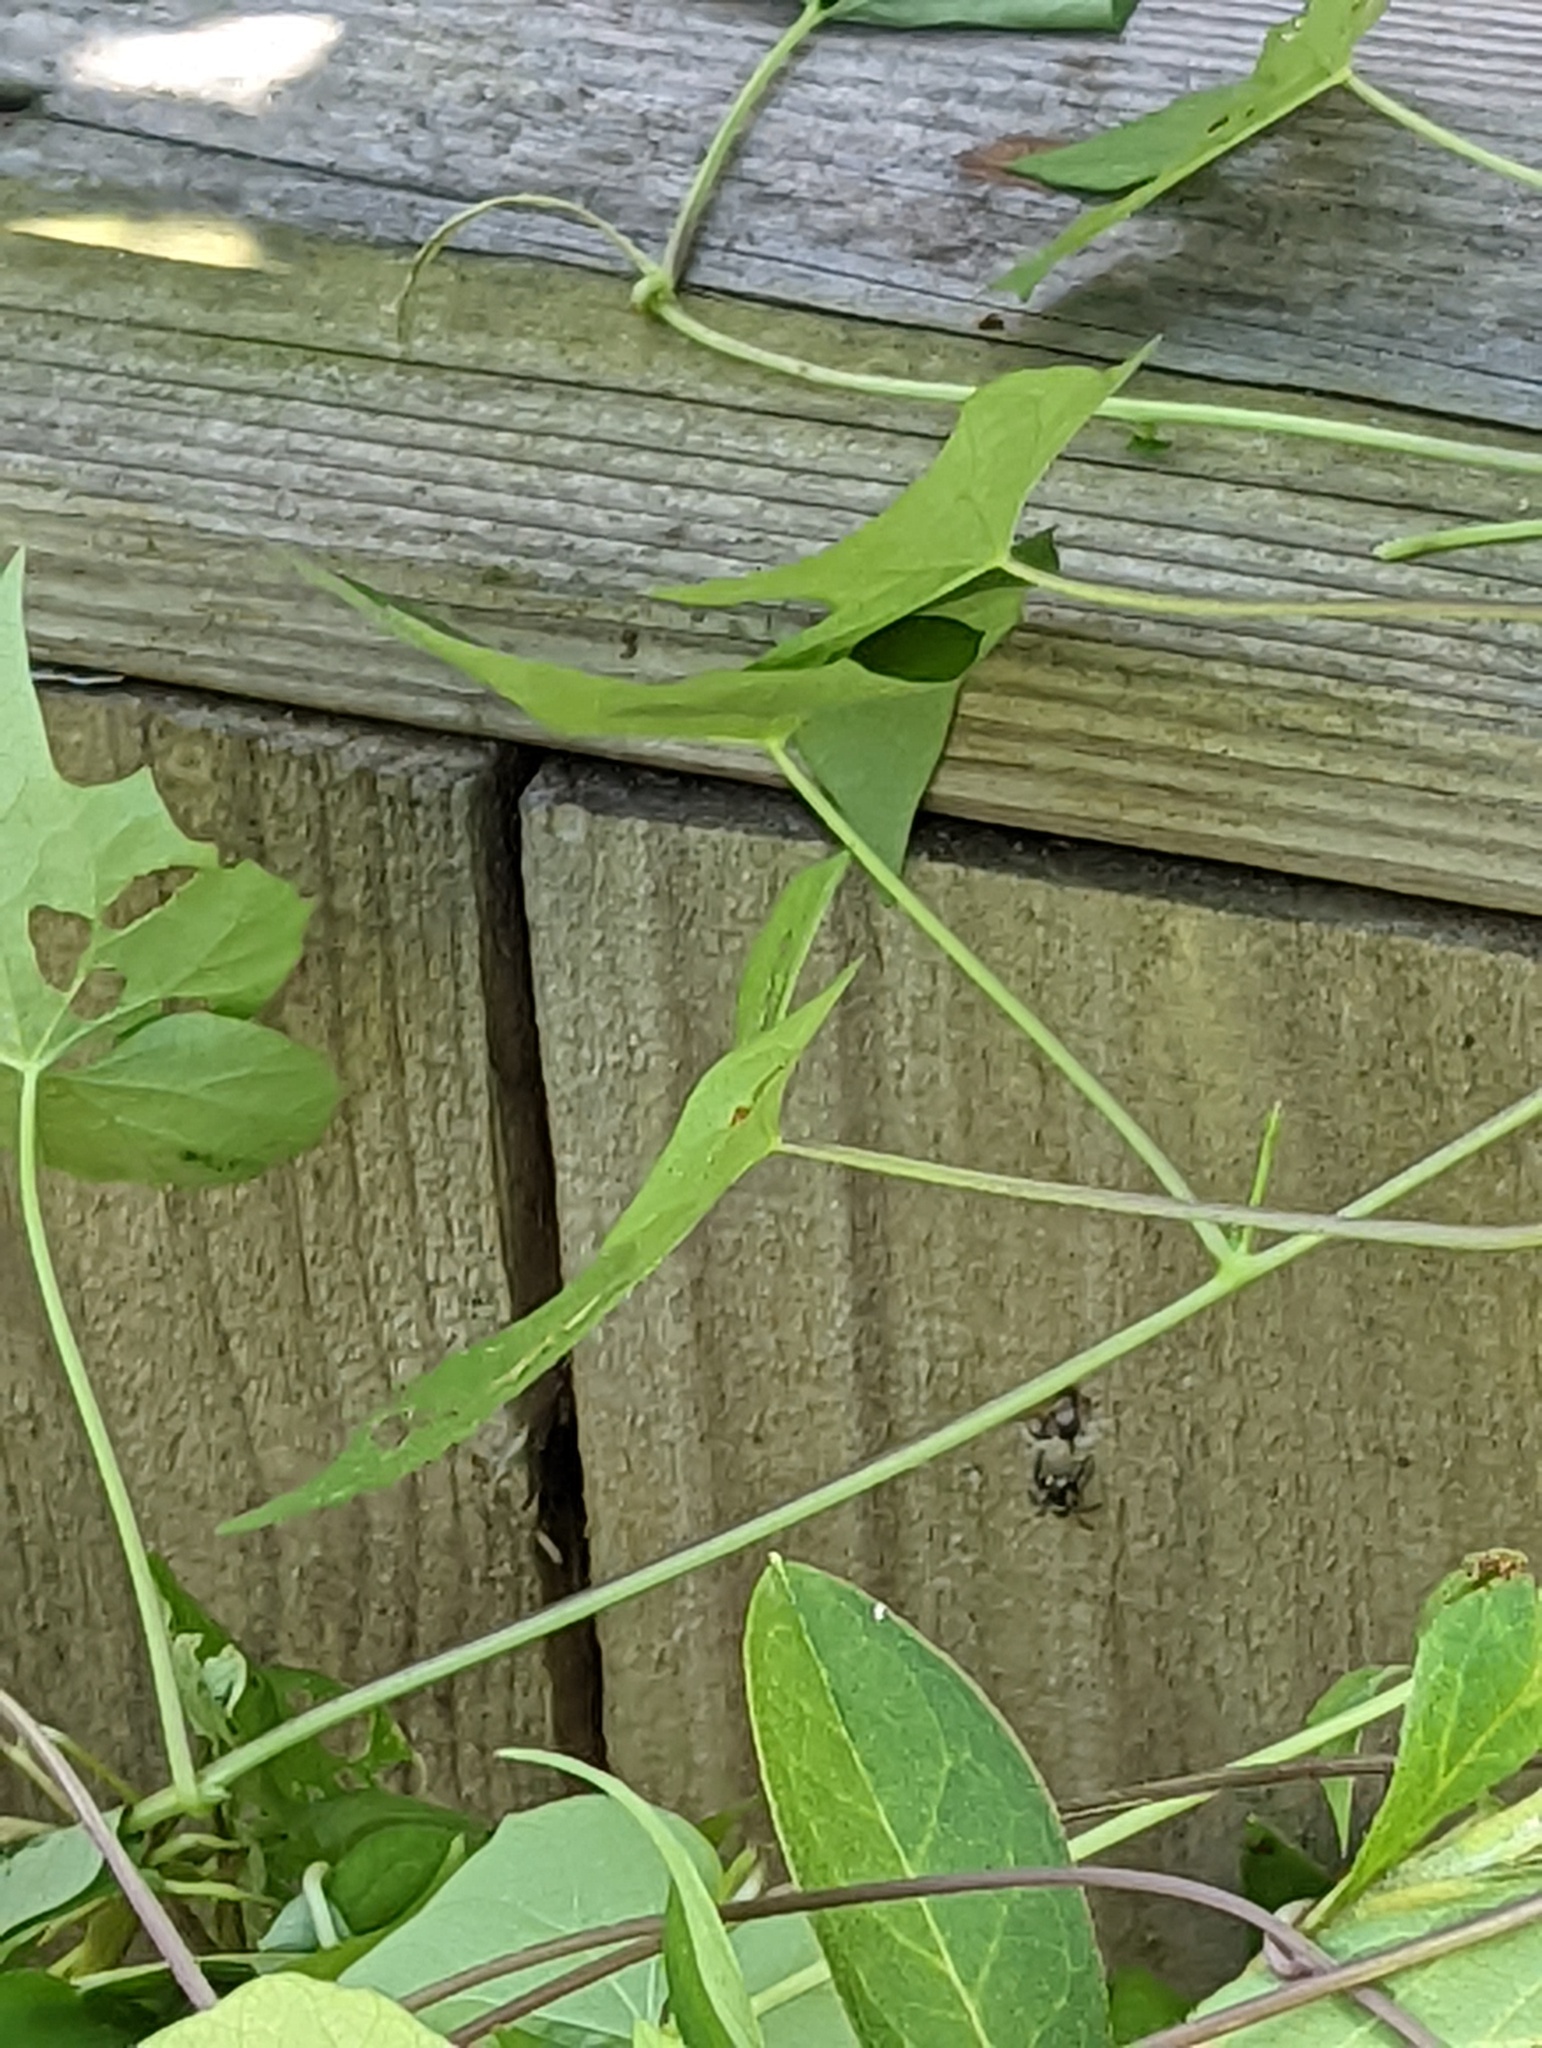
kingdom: Animalia
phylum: Arthropoda
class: Arachnida
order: Araneae
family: Salticidae
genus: Anasaitis
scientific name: Anasaitis canosa
